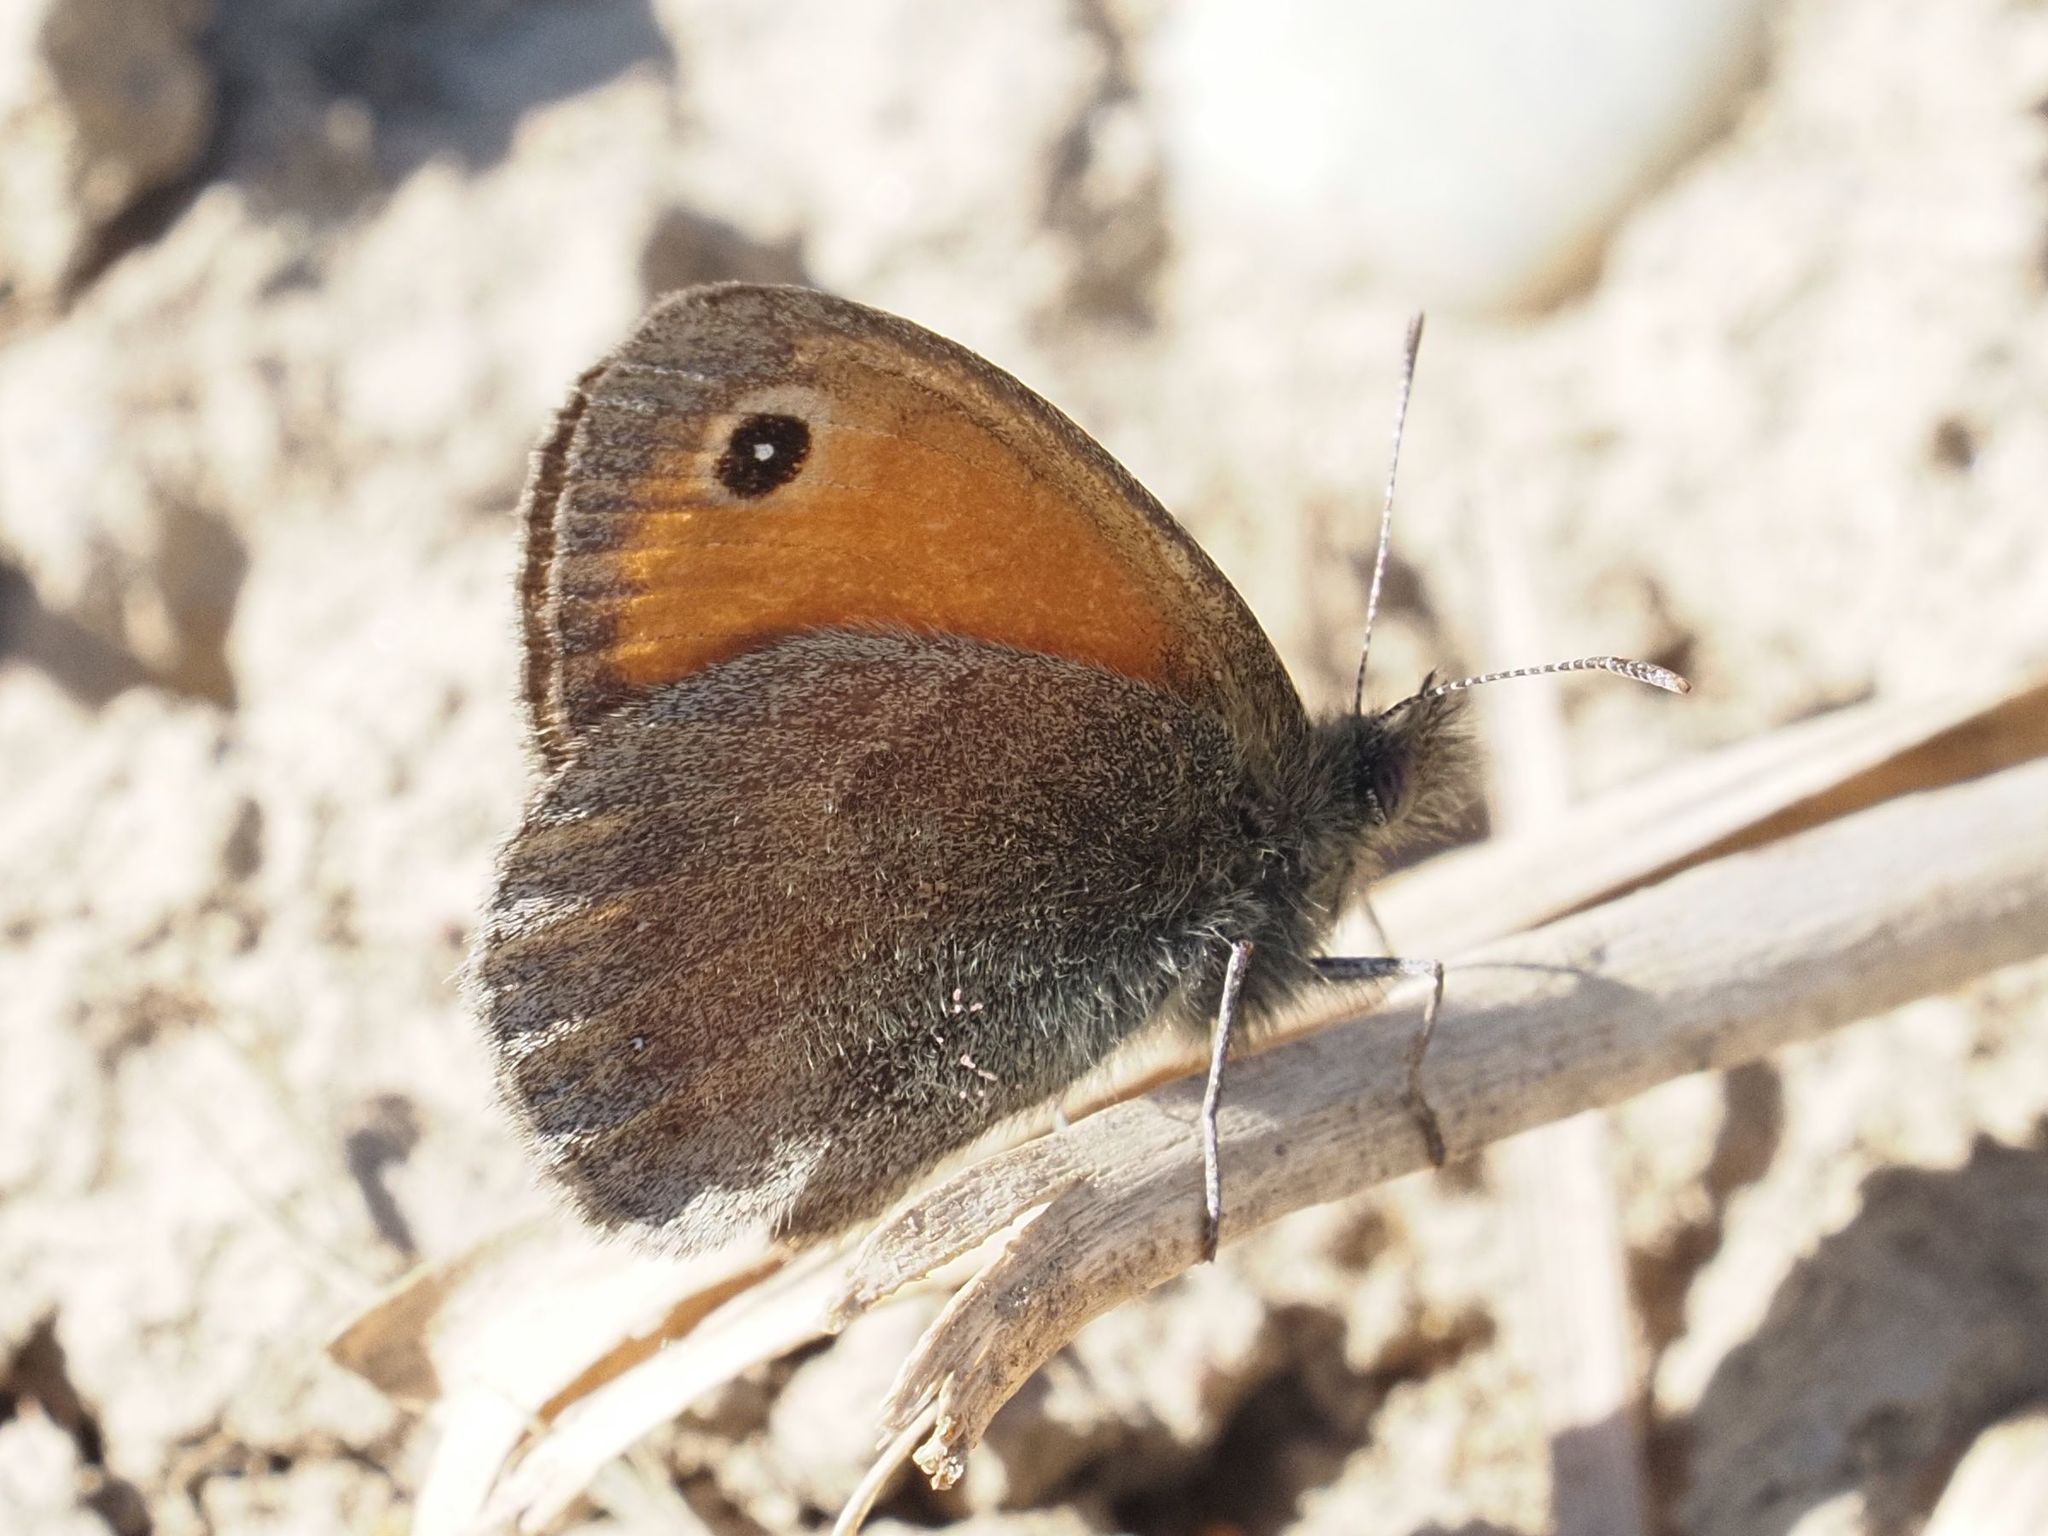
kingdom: Animalia
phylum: Arthropoda
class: Insecta
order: Lepidoptera
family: Nymphalidae
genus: Coenonympha
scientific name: Coenonympha pamphilus
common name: Small heath
